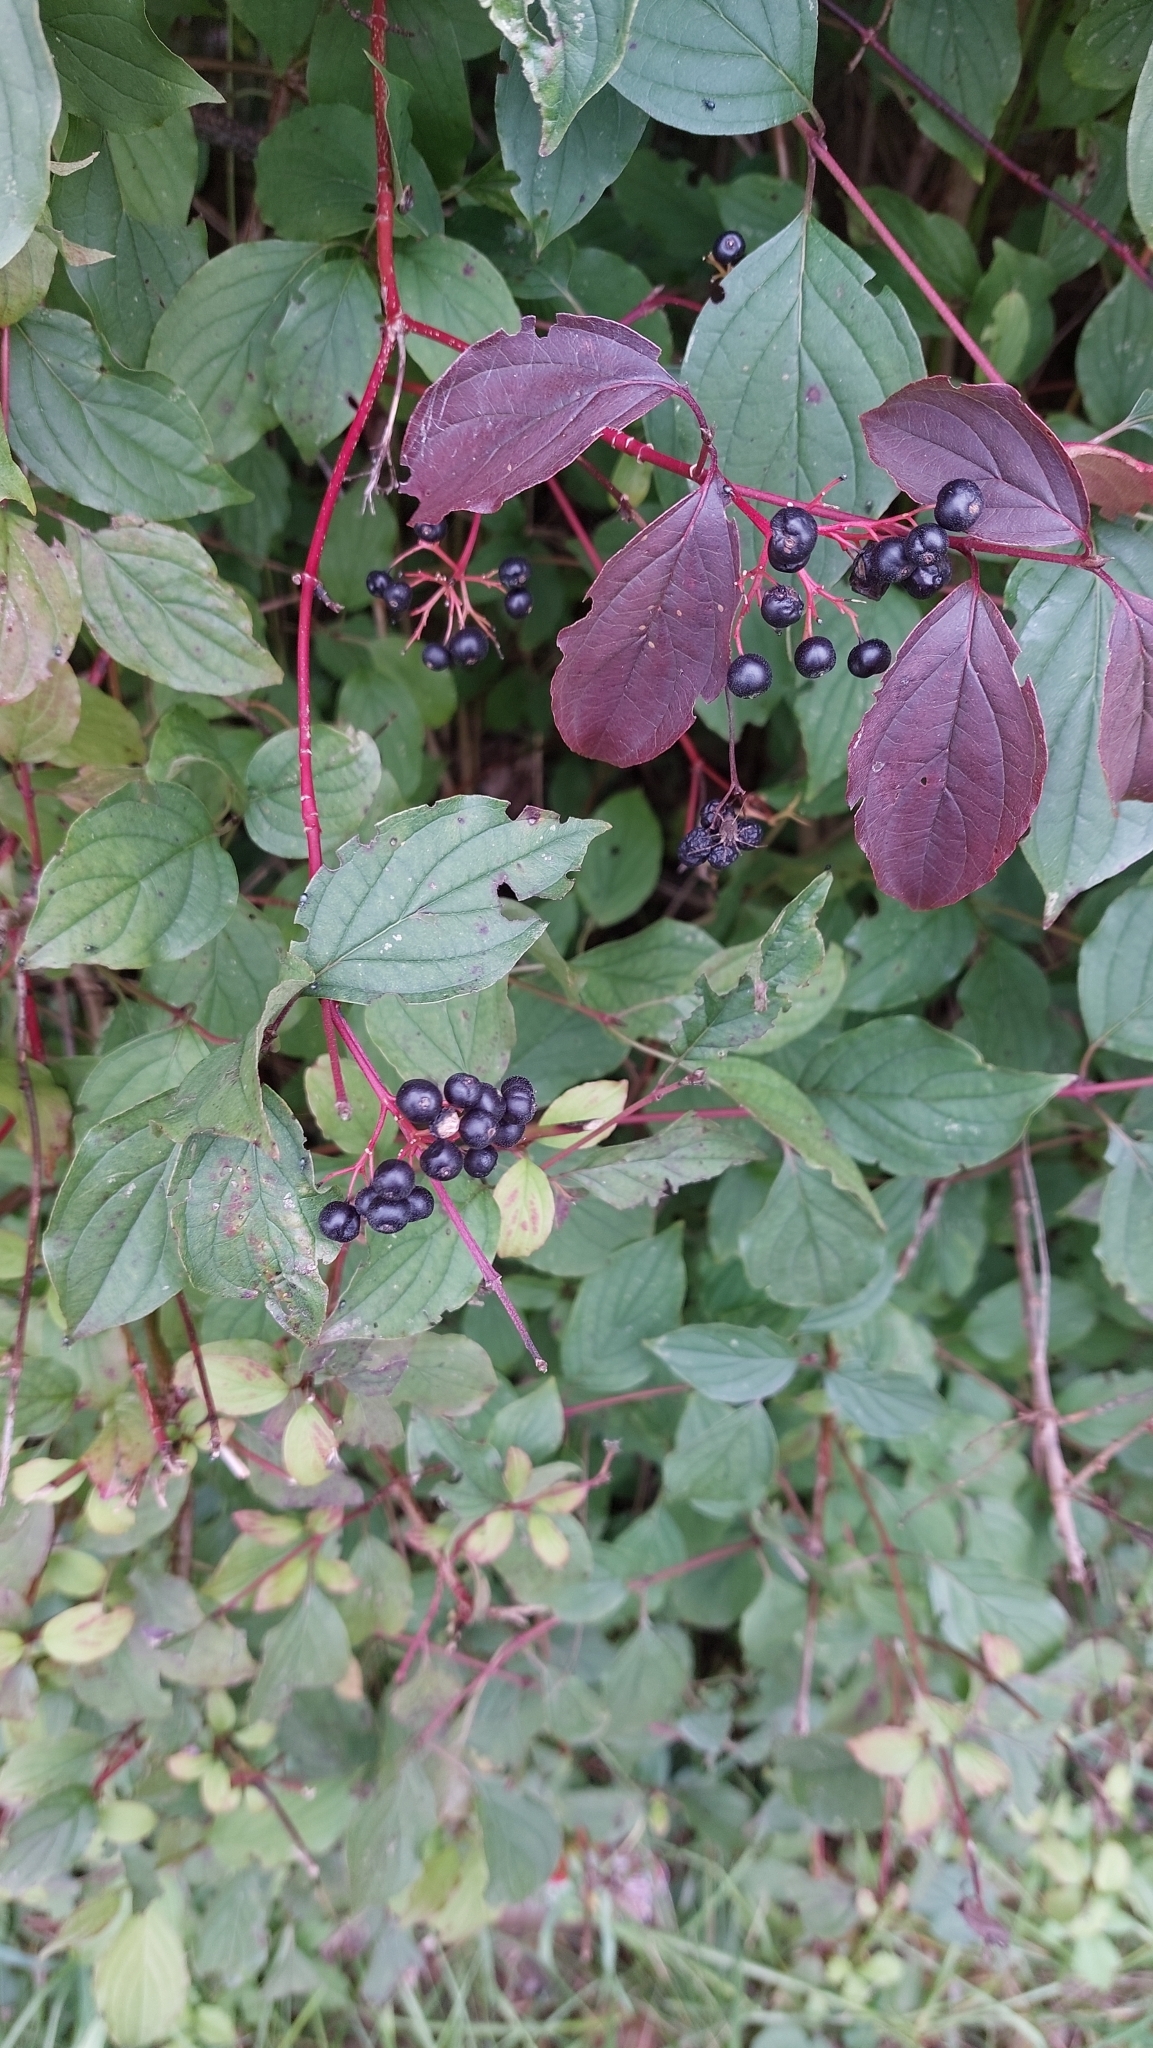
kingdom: Plantae
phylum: Tracheophyta
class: Magnoliopsida
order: Cornales
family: Cornaceae
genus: Cornus
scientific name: Cornus sanguinea
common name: Dogwood
